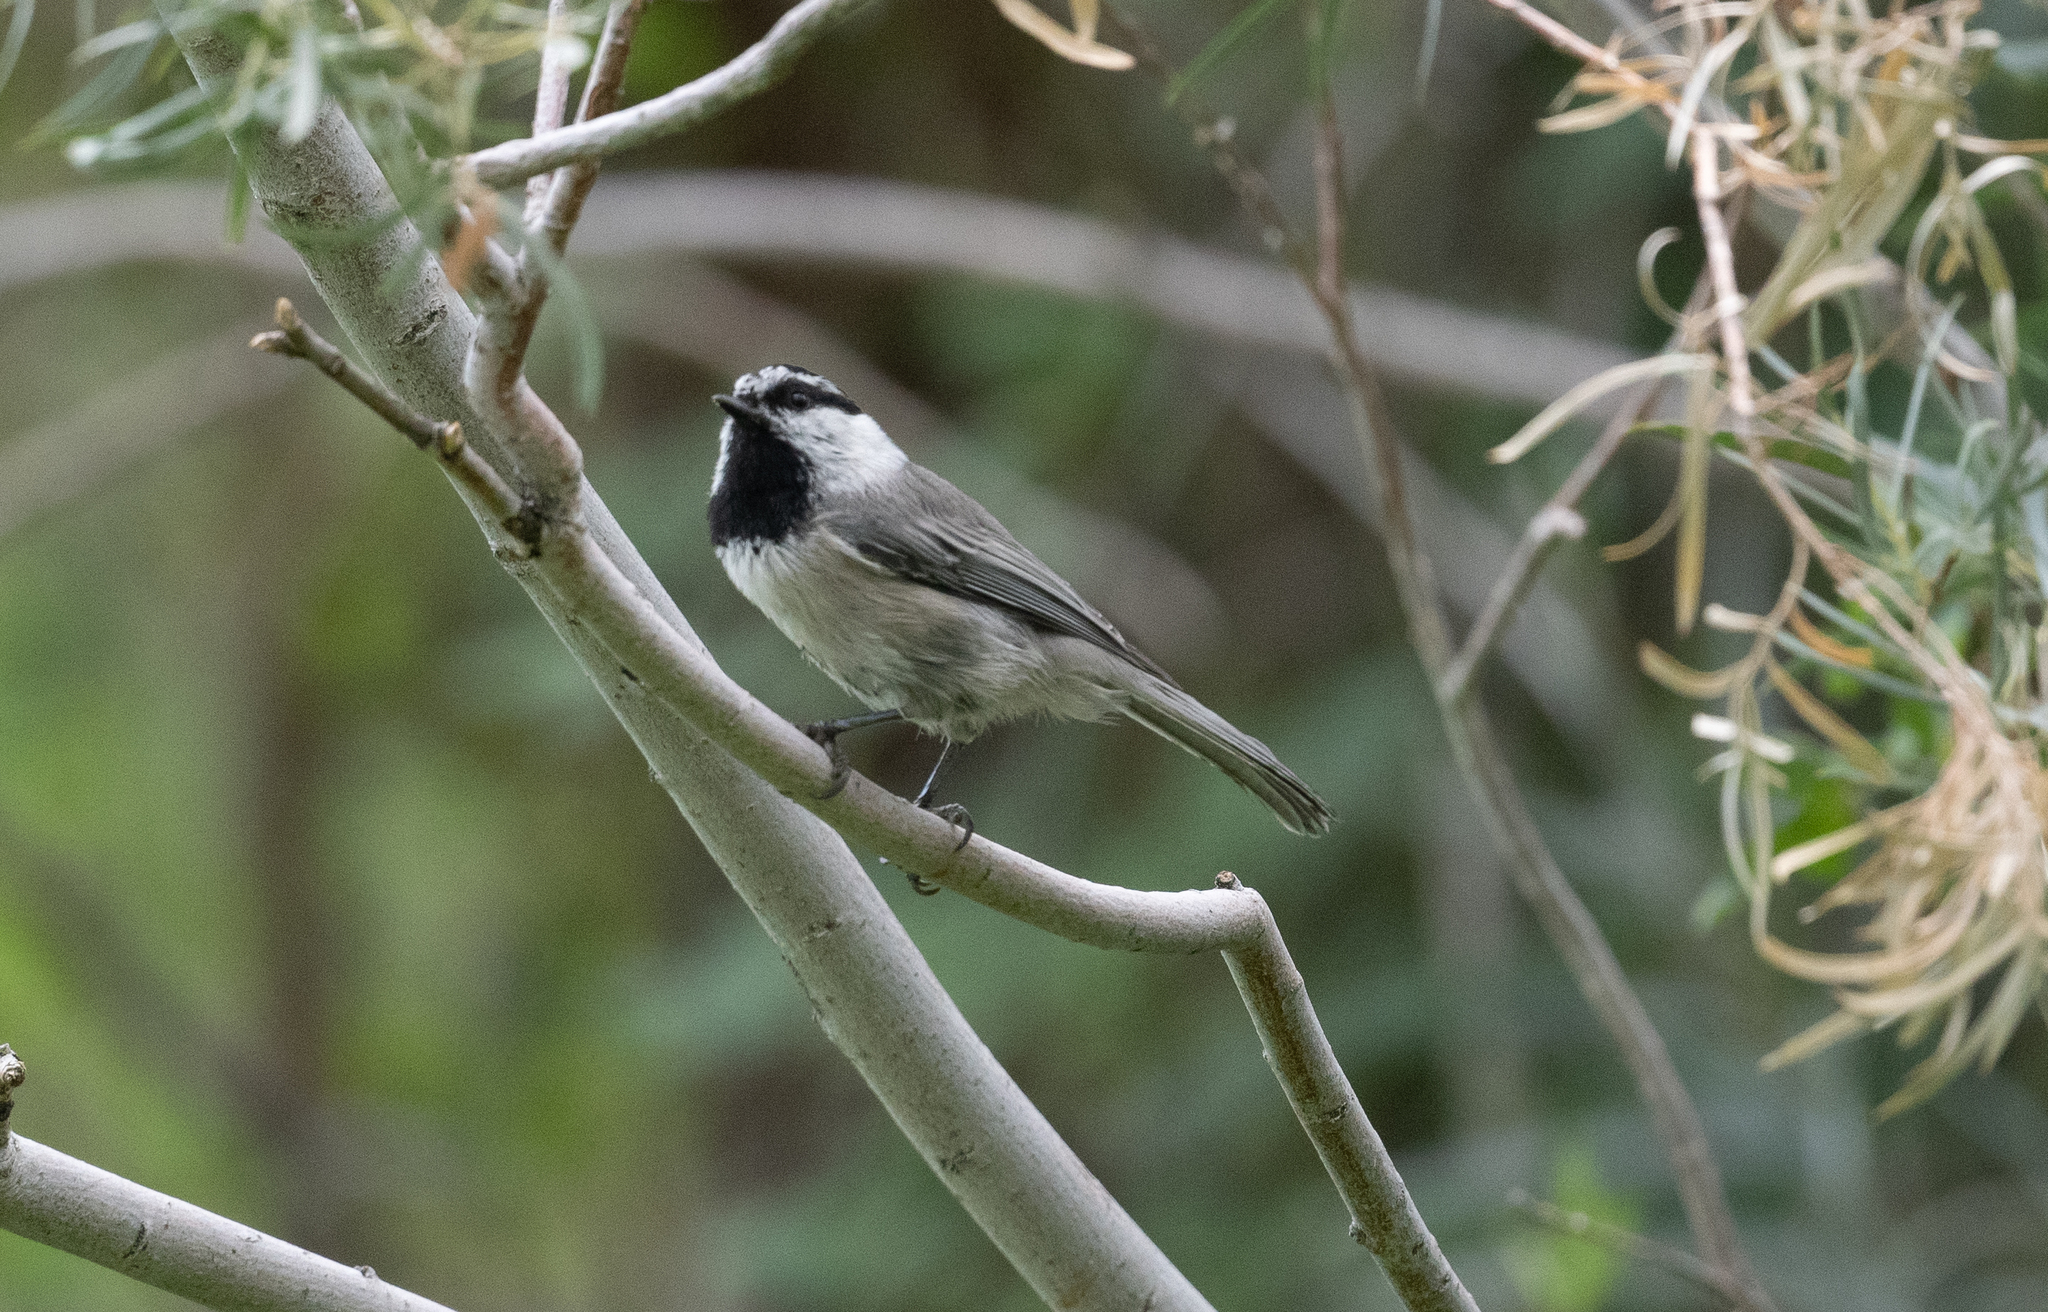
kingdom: Animalia
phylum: Chordata
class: Aves
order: Passeriformes
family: Paridae
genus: Poecile
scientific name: Poecile gambeli
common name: Mountain chickadee
